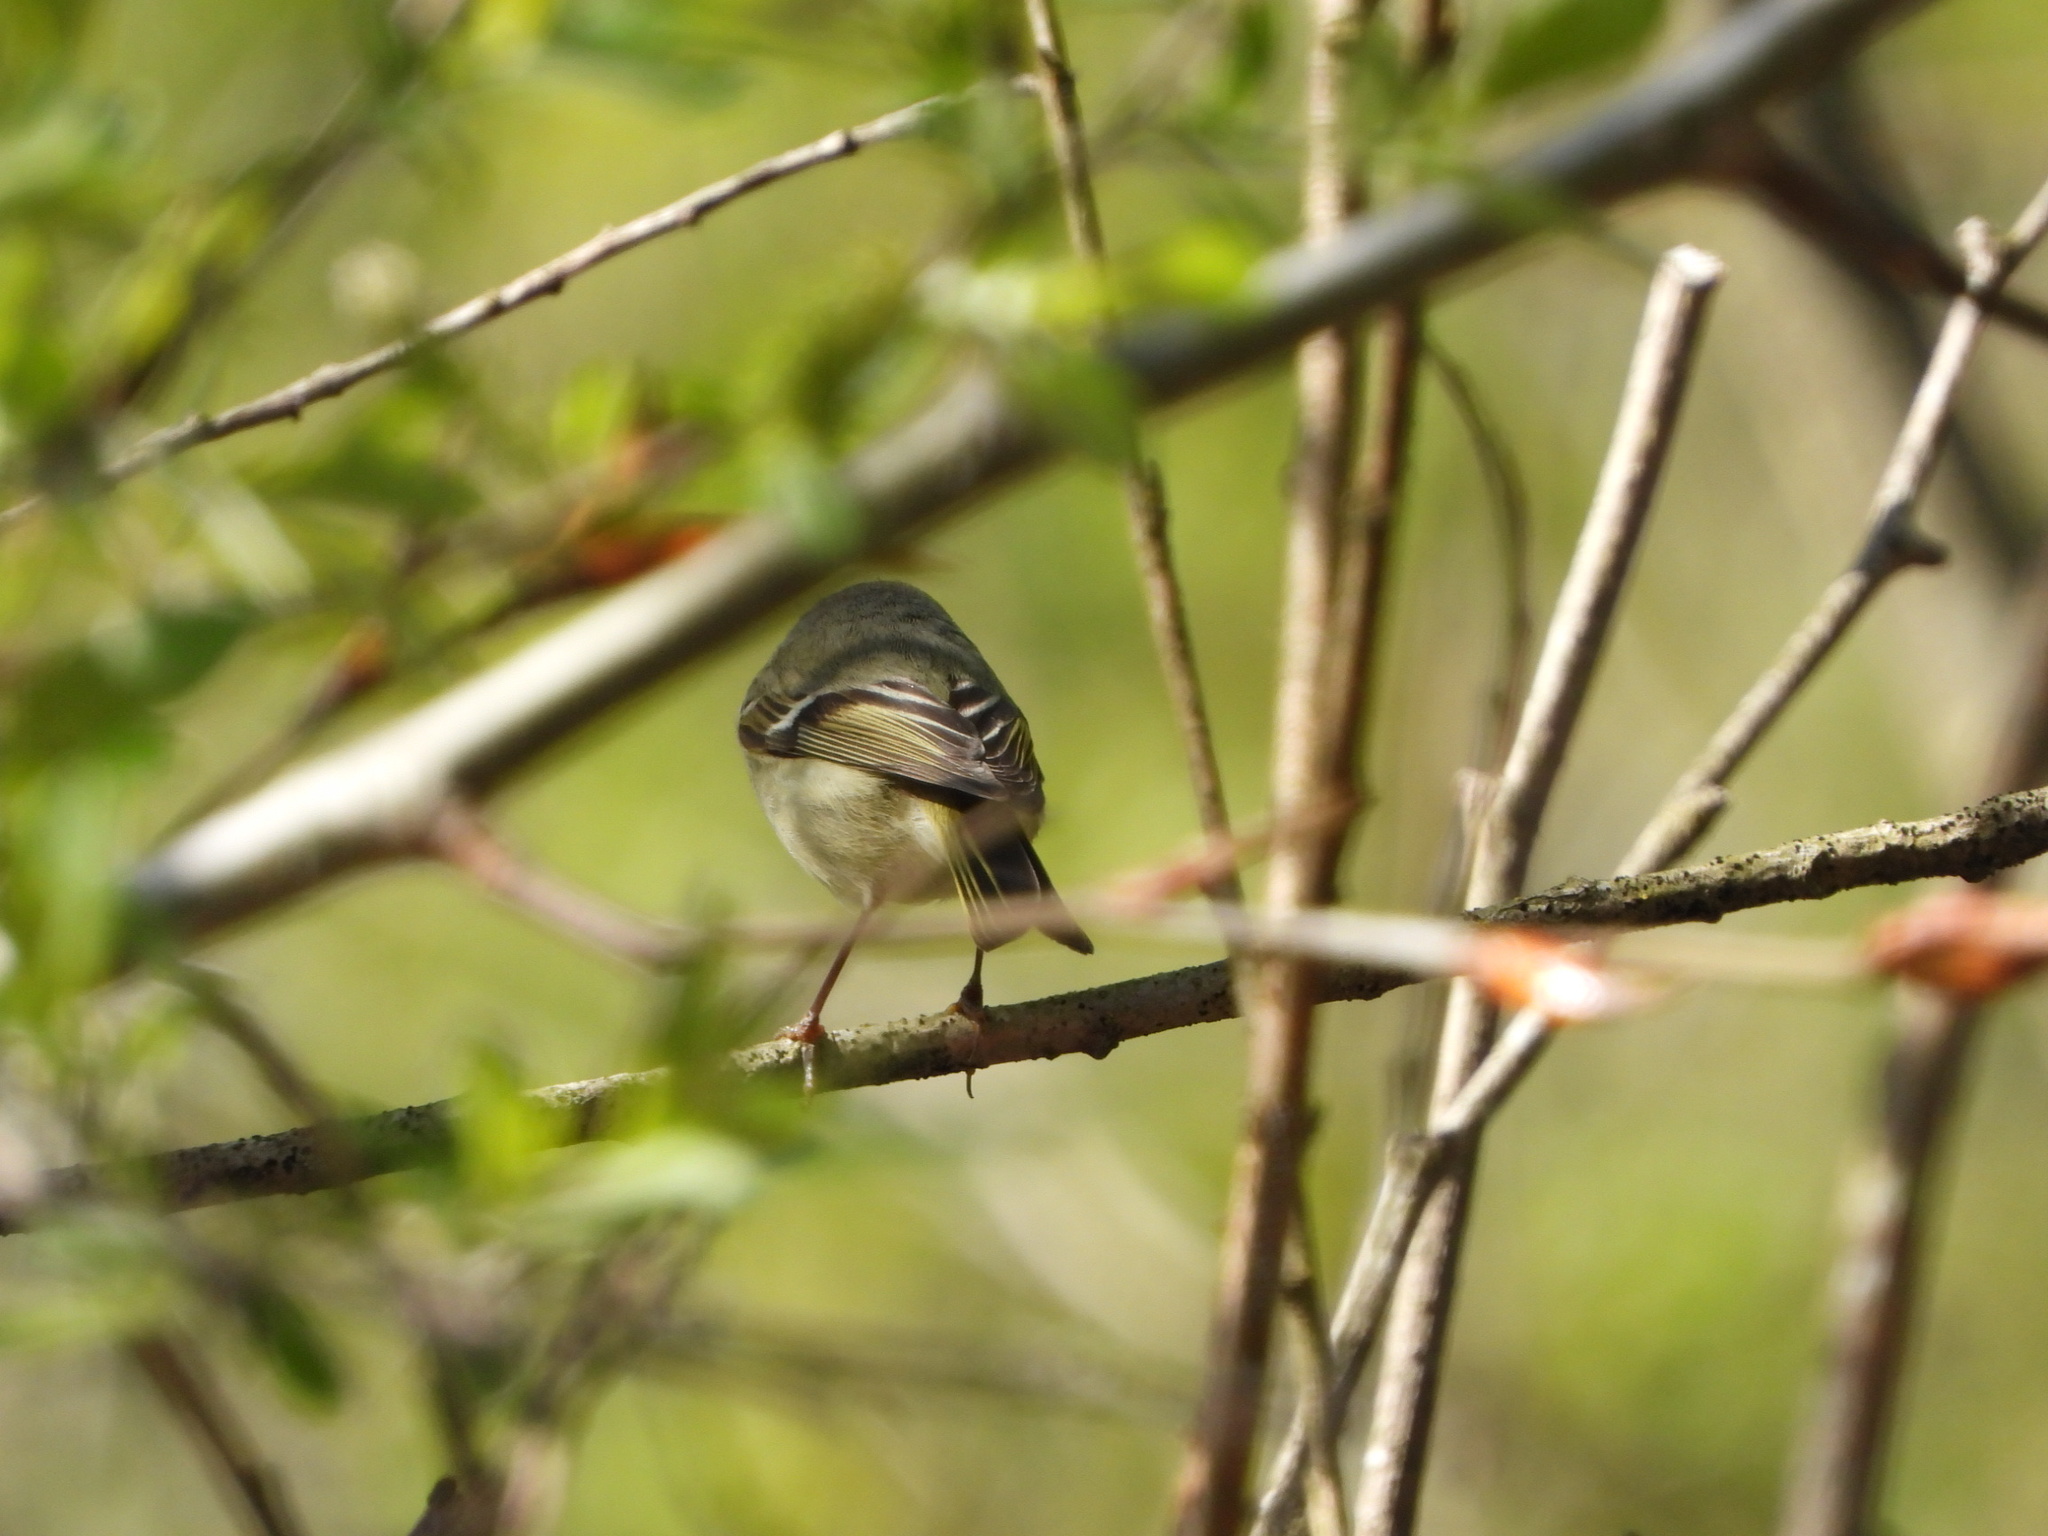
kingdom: Animalia
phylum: Chordata
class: Aves
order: Passeriformes
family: Regulidae
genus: Regulus
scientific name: Regulus calendula
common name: Ruby-crowned kinglet
